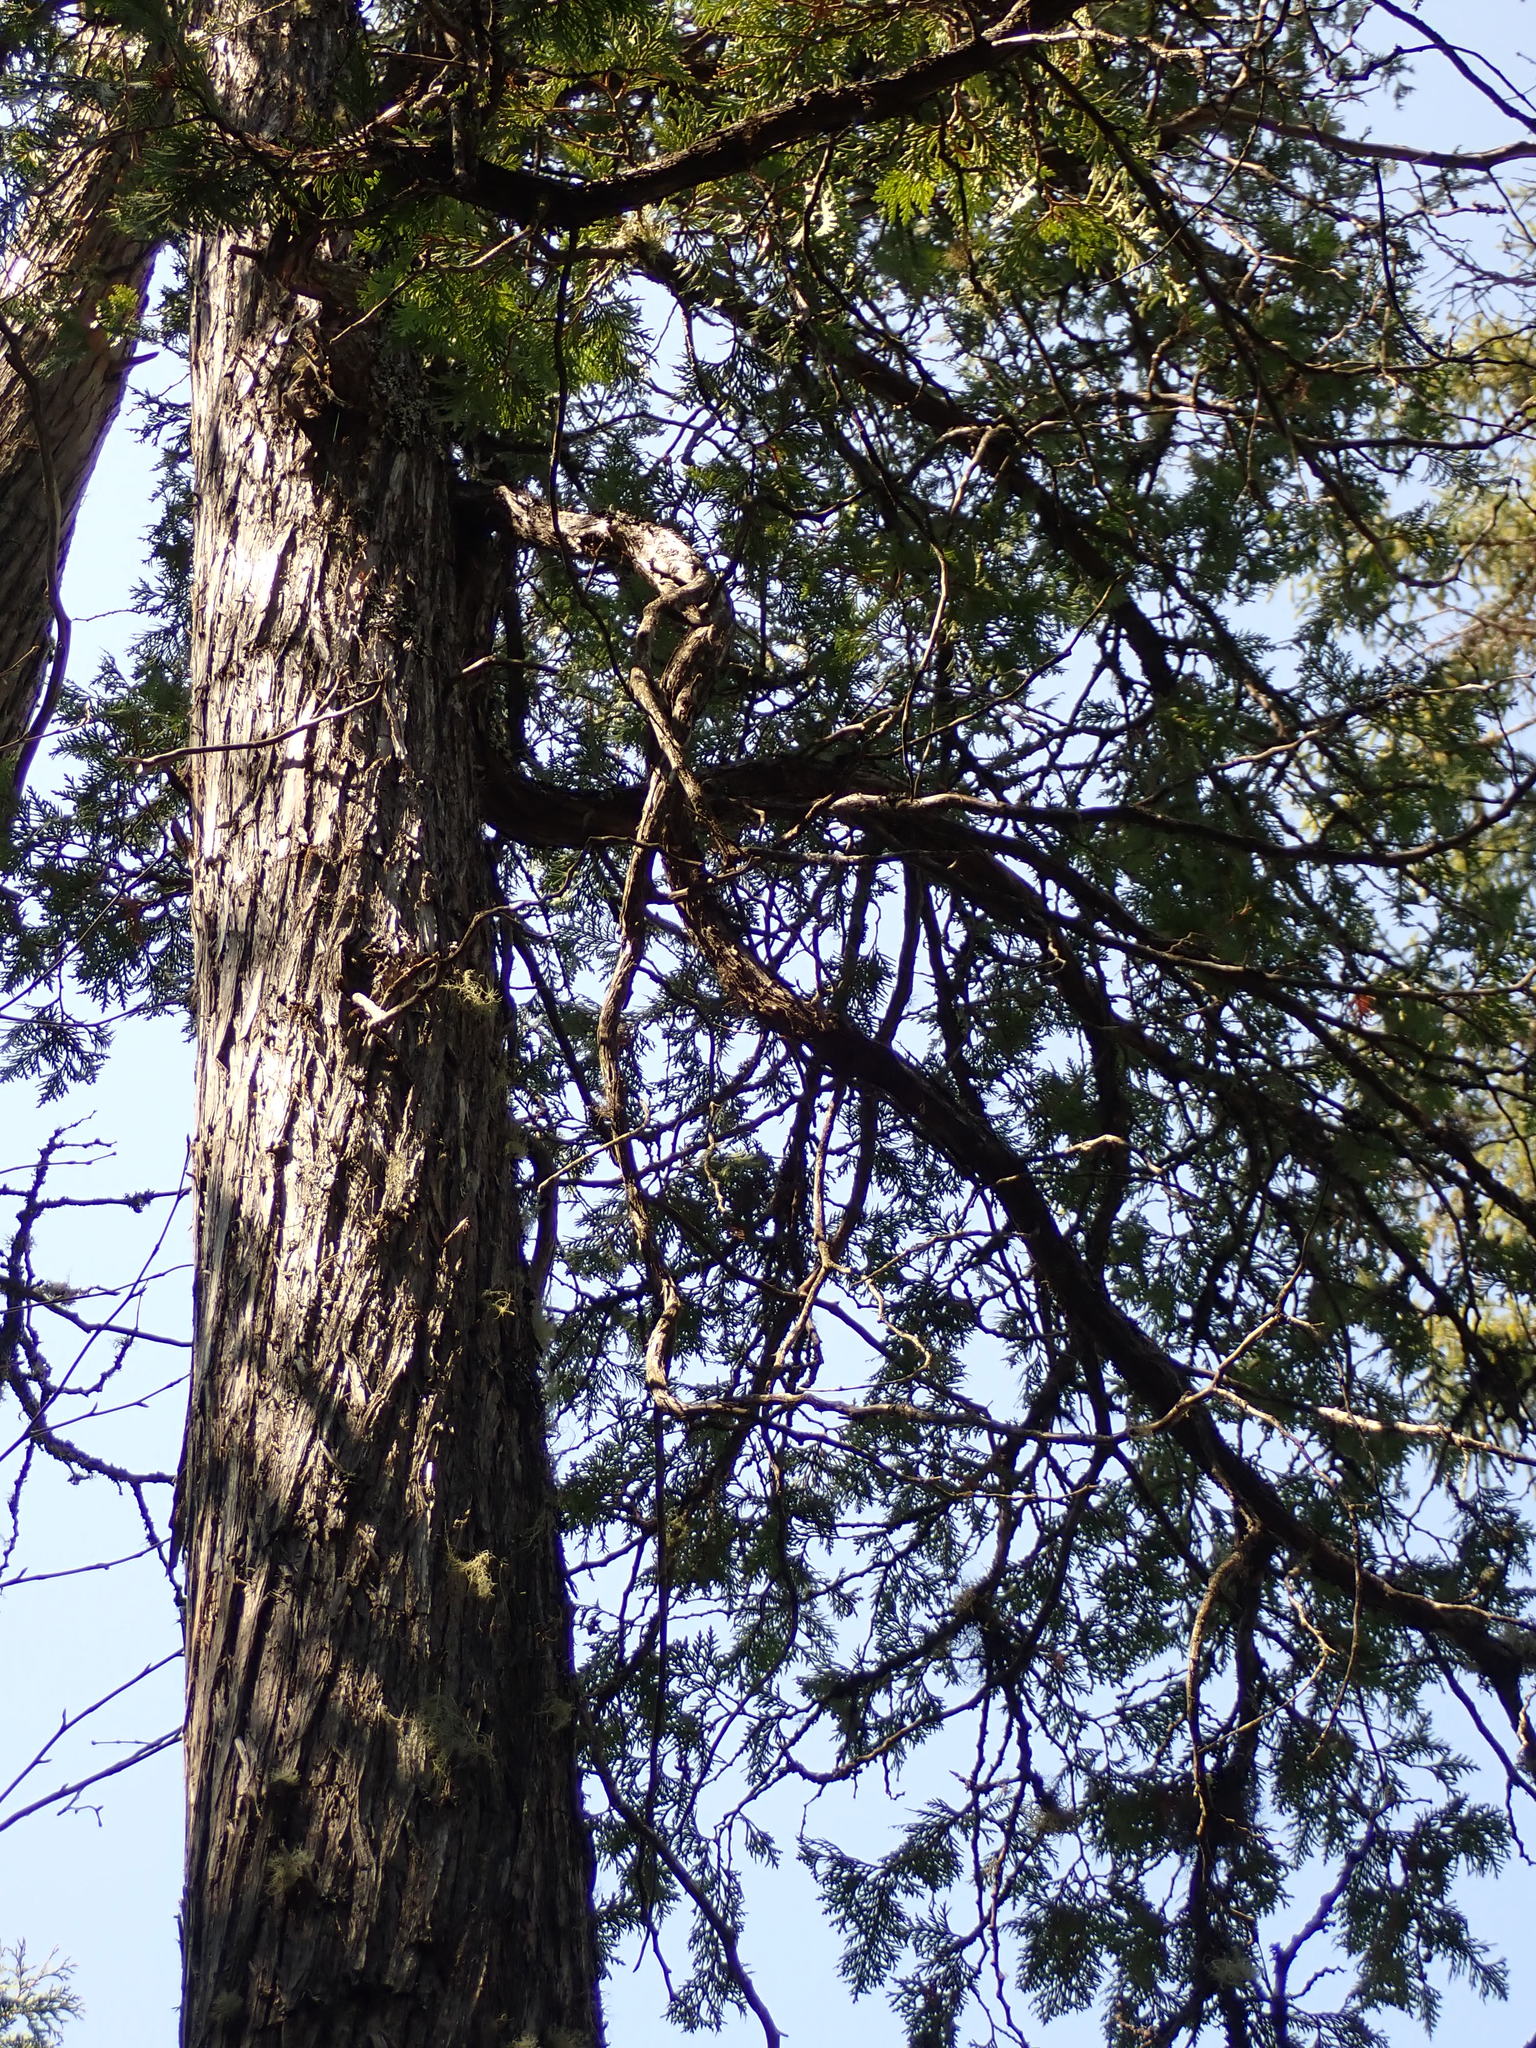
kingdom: Plantae
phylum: Tracheophyta
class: Pinopsida
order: Pinales
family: Cupressaceae
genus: Thuja
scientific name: Thuja occidentalis
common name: Northern white-cedar
